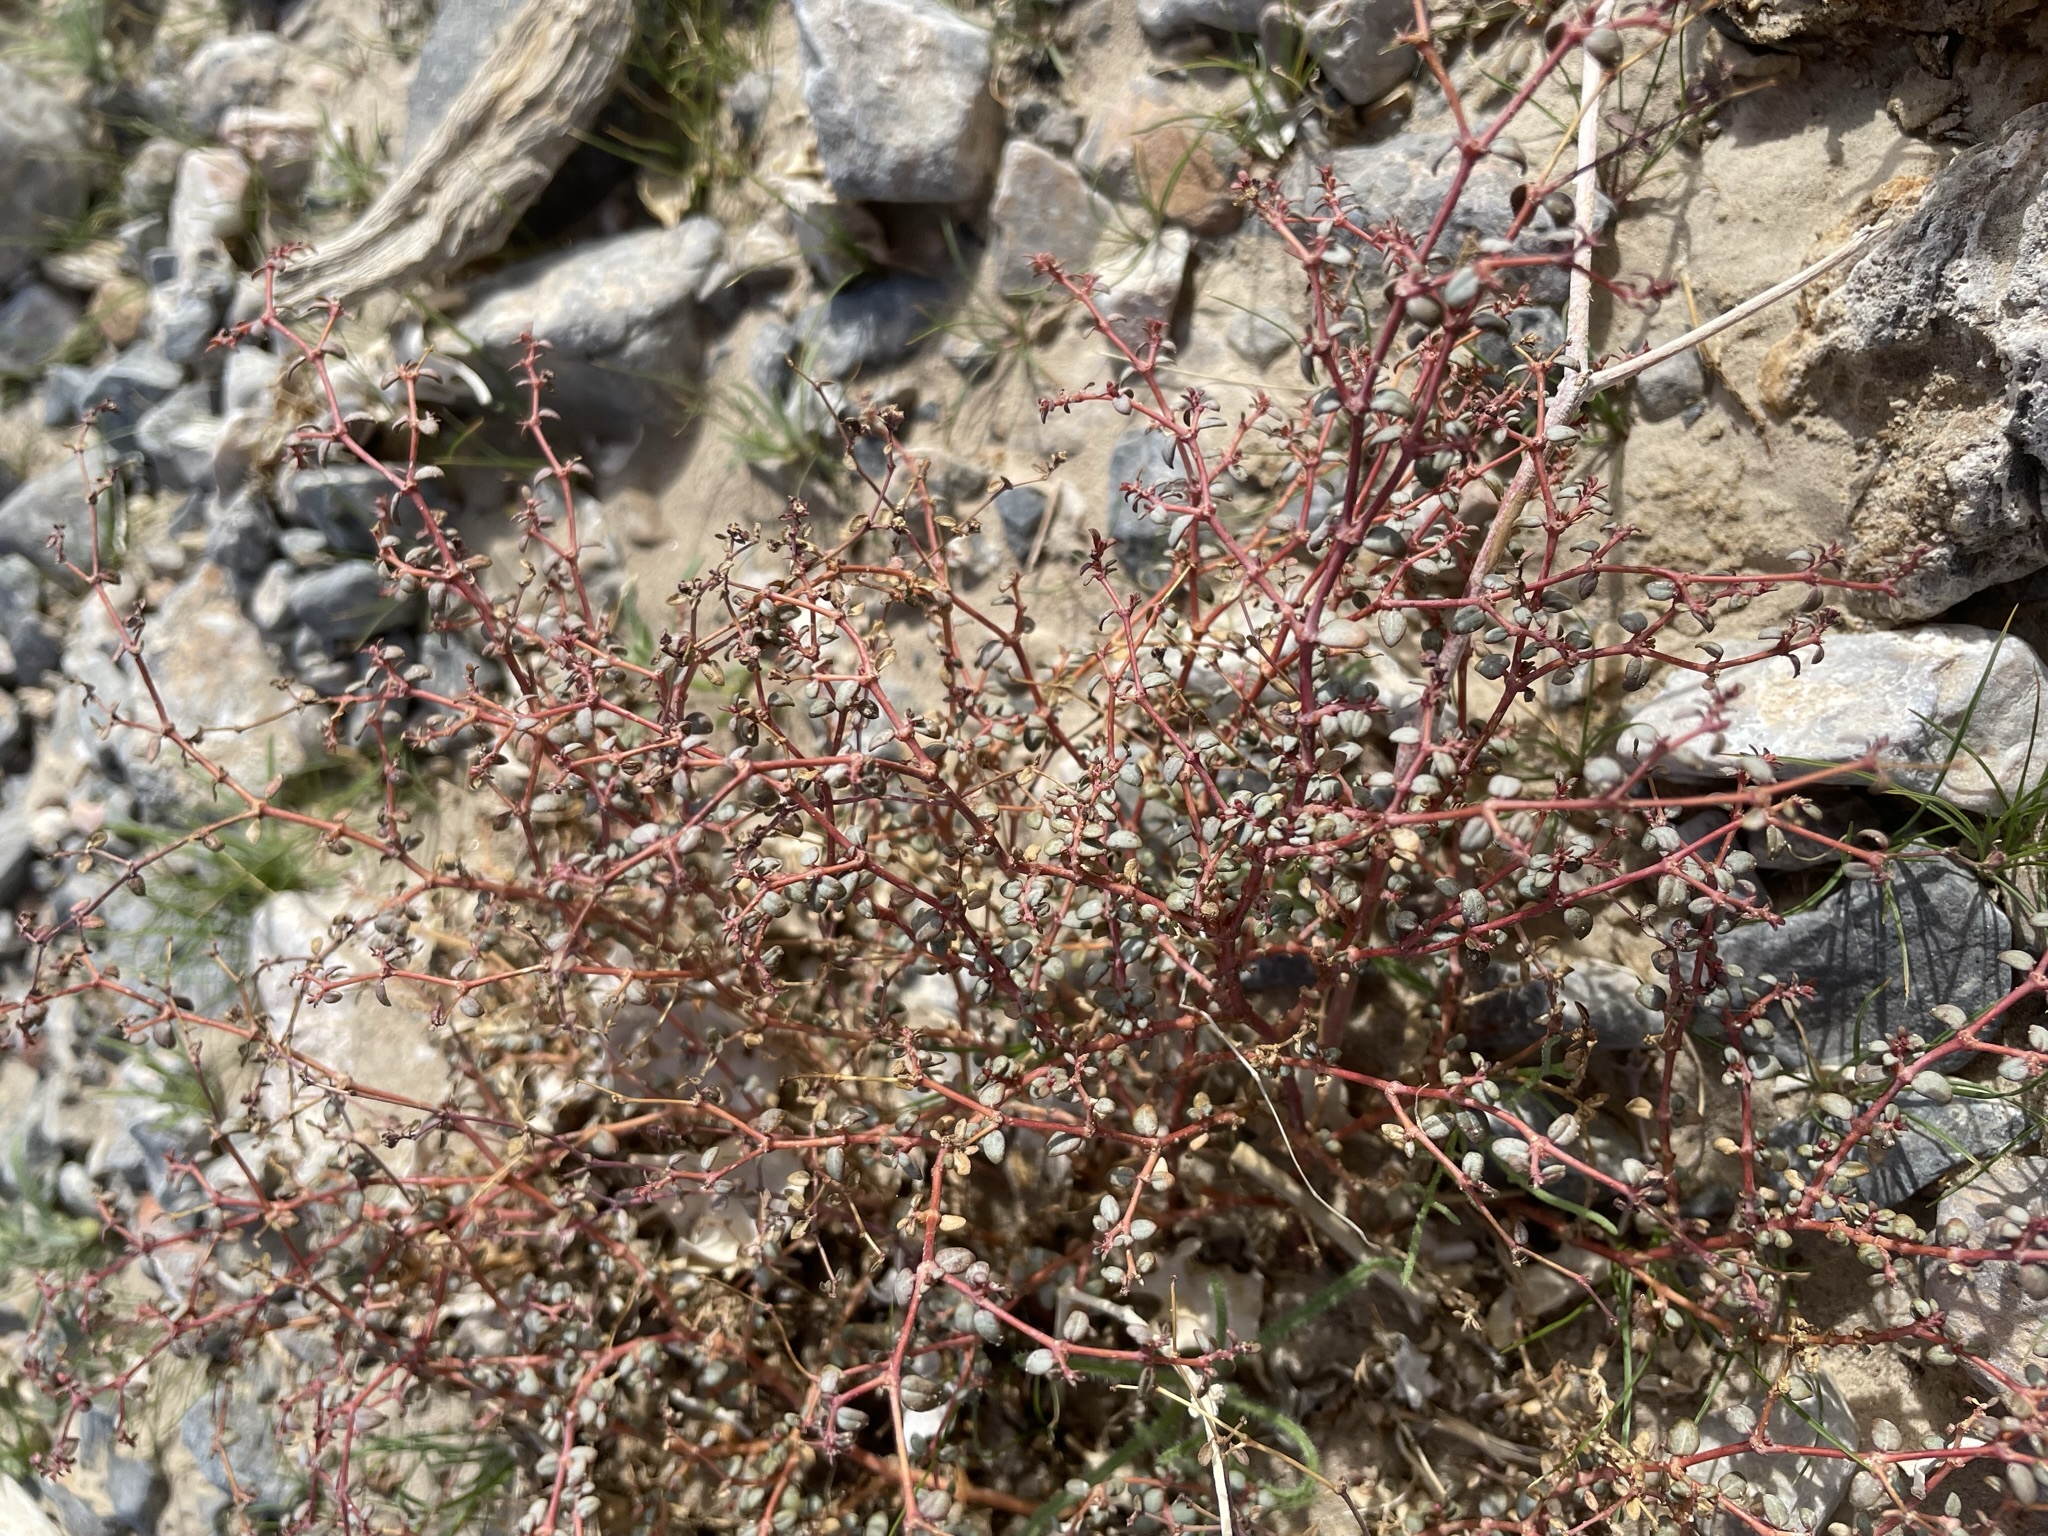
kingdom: Plantae
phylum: Tracheophyta
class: Magnoliopsida
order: Malpighiales
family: Euphorbiaceae
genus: Euphorbia
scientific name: Euphorbia parishii
